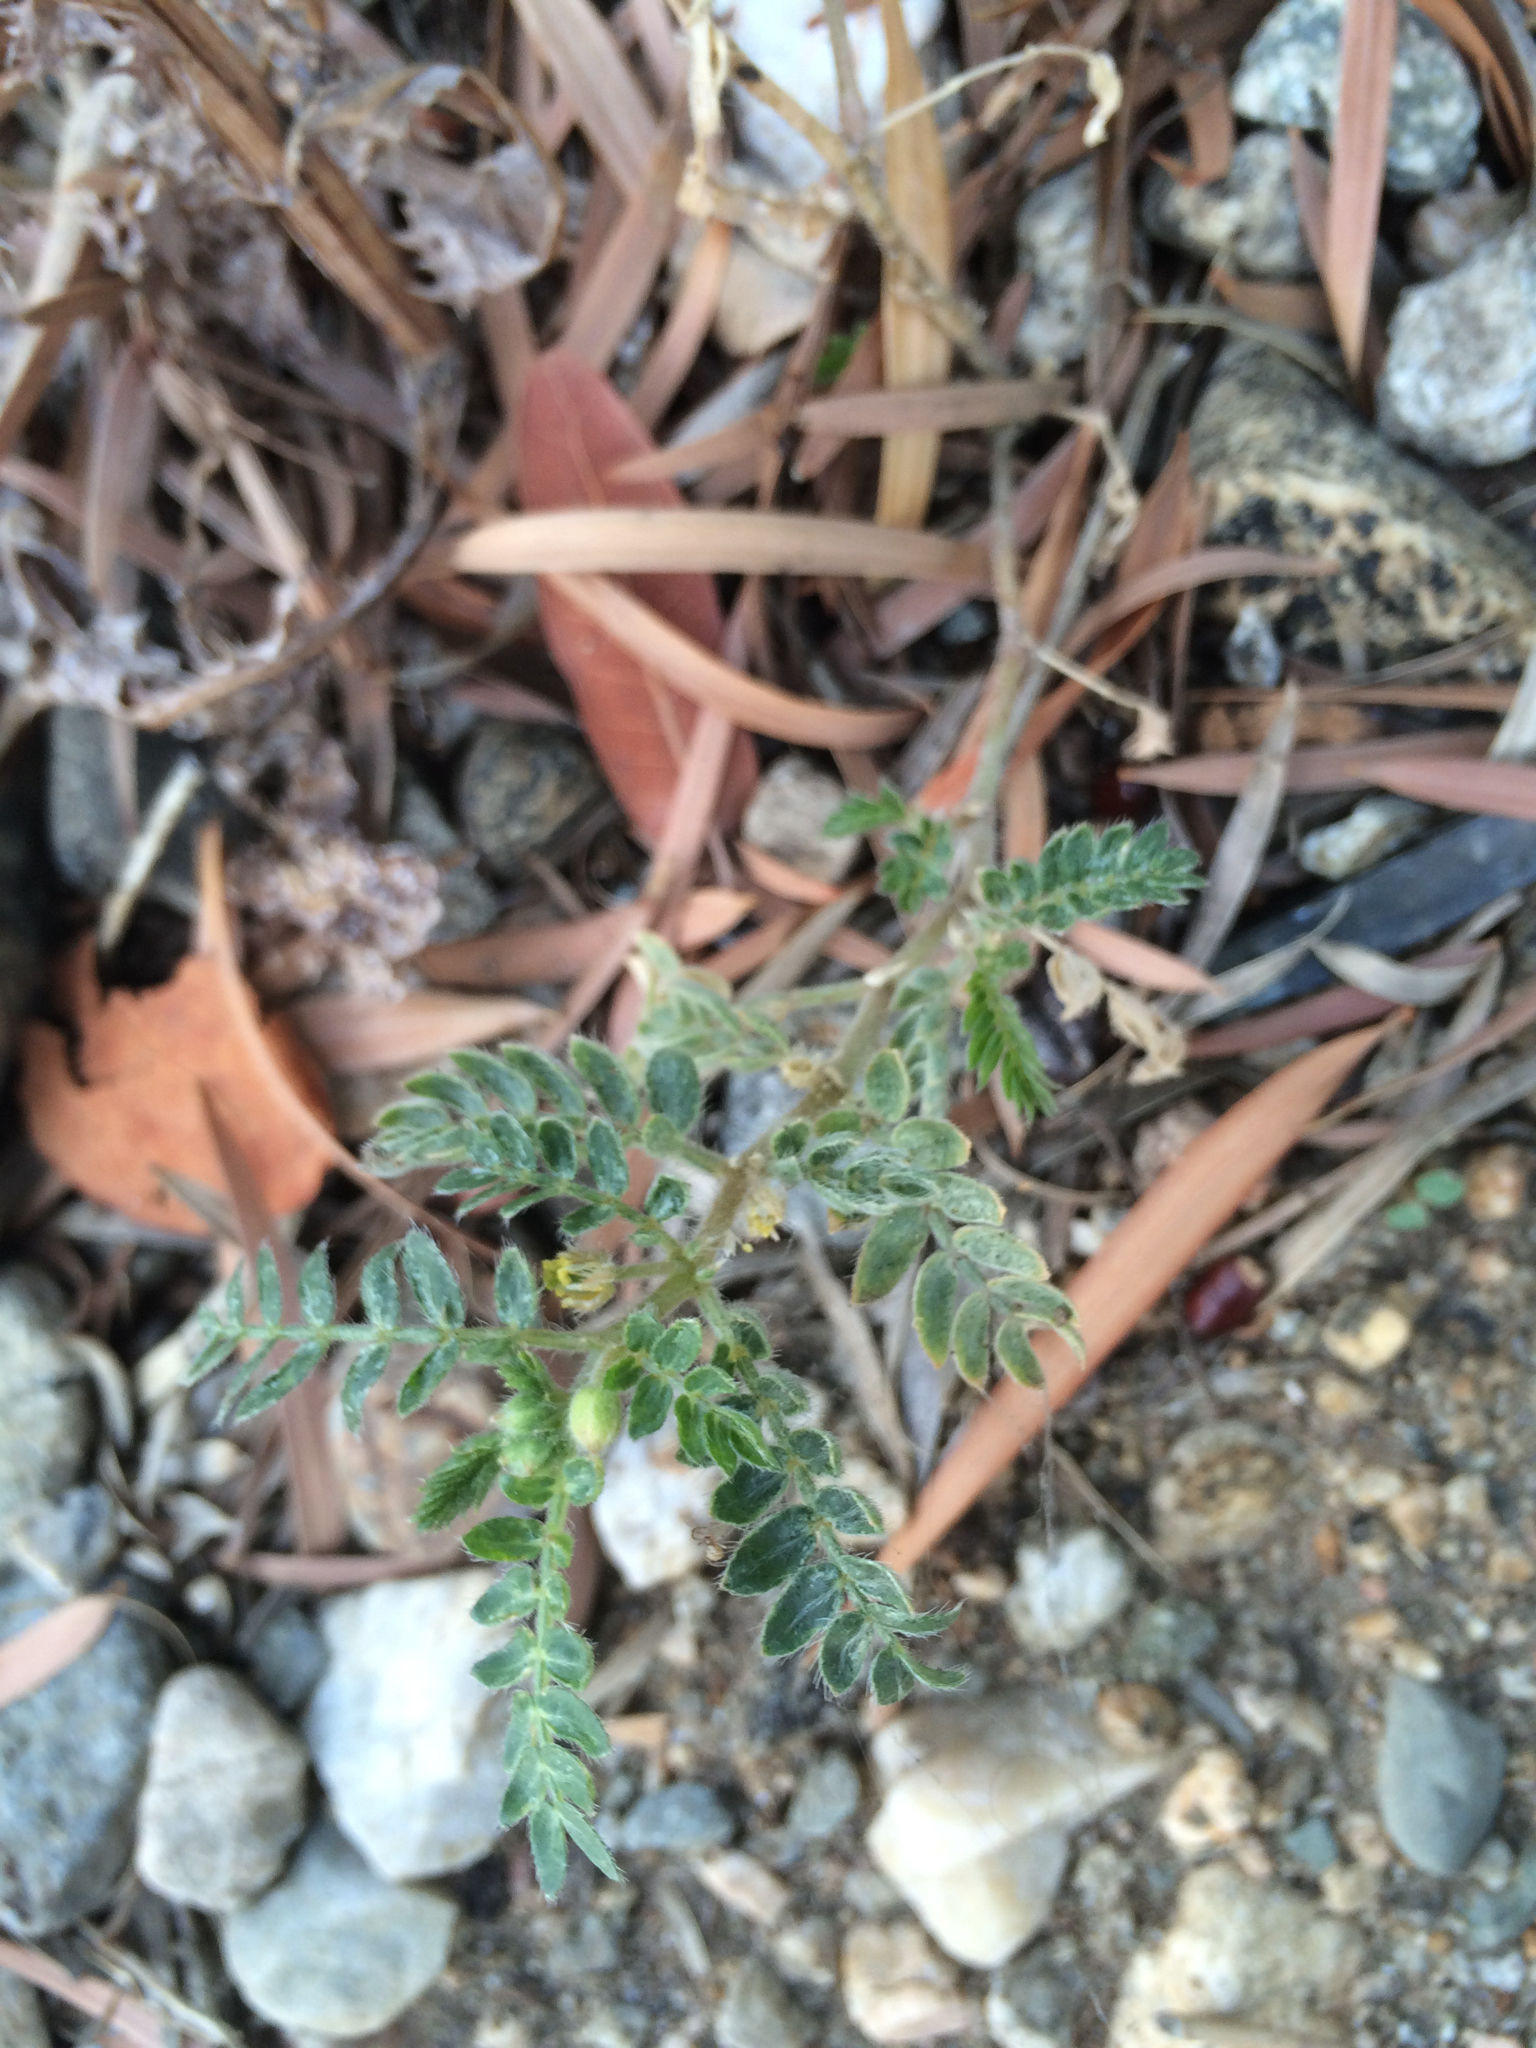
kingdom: Plantae
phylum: Tracheophyta
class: Magnoliopsida
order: Zygophyllales
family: Zygophyllaceae
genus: Tribulus
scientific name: Tribulus terrestris
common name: Puncturevine
